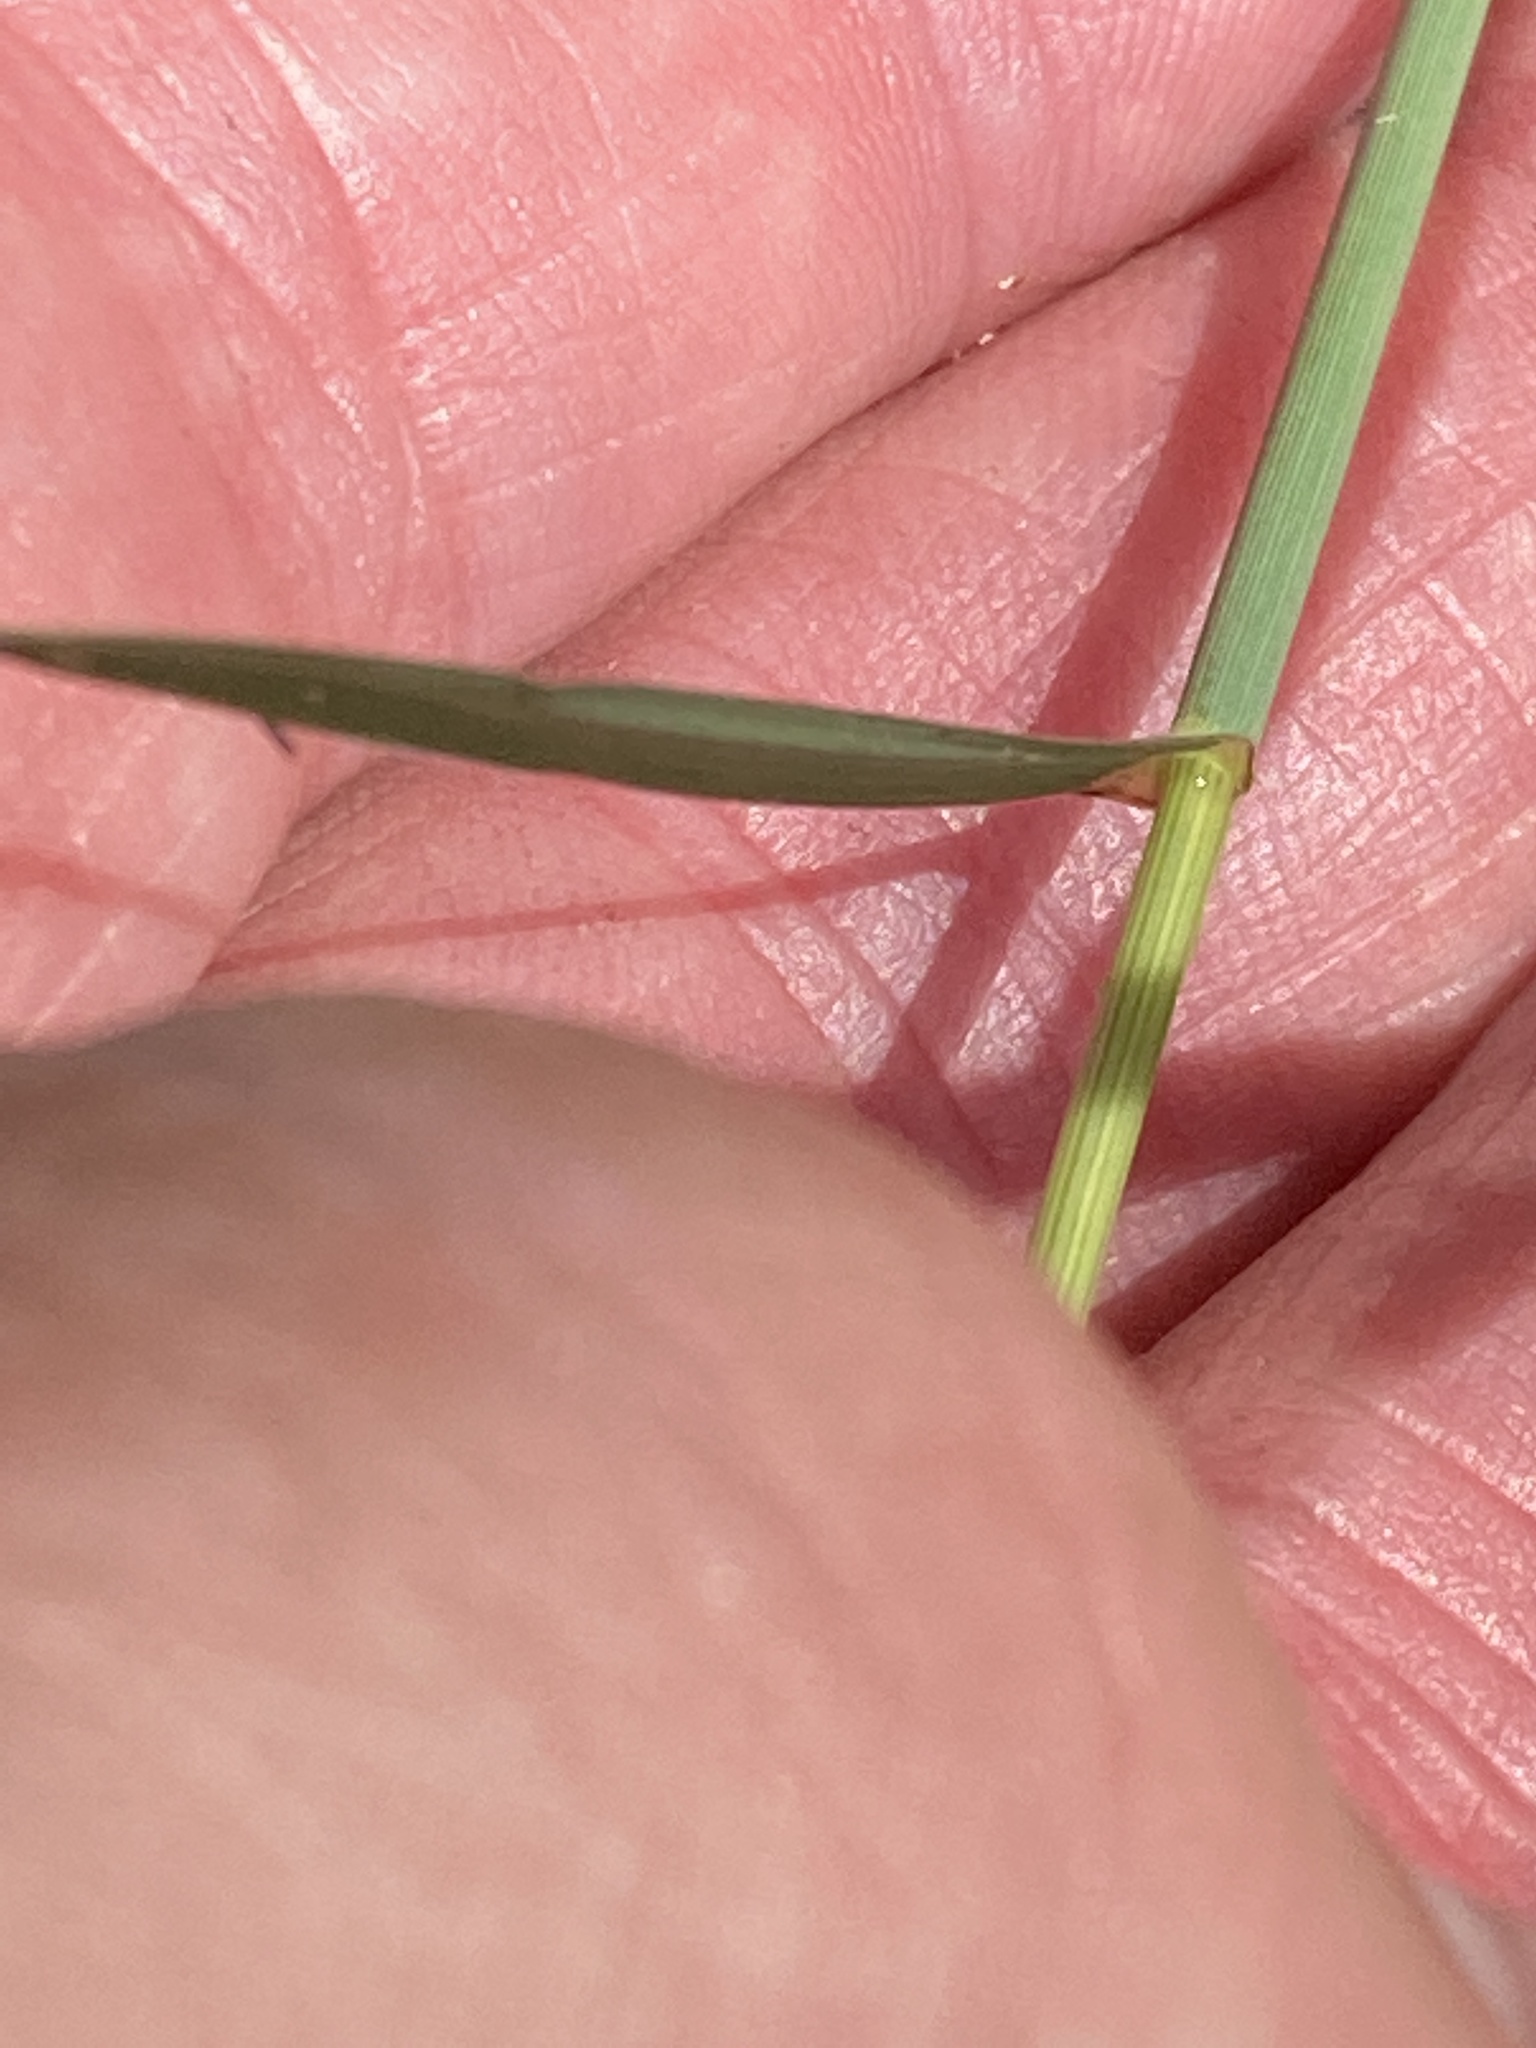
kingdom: Plantae
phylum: Tracheophyta
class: Liliopsida
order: Poales
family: Poaceae
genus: Disakisperma
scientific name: Disakisperma dubium
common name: Green sprangletop
